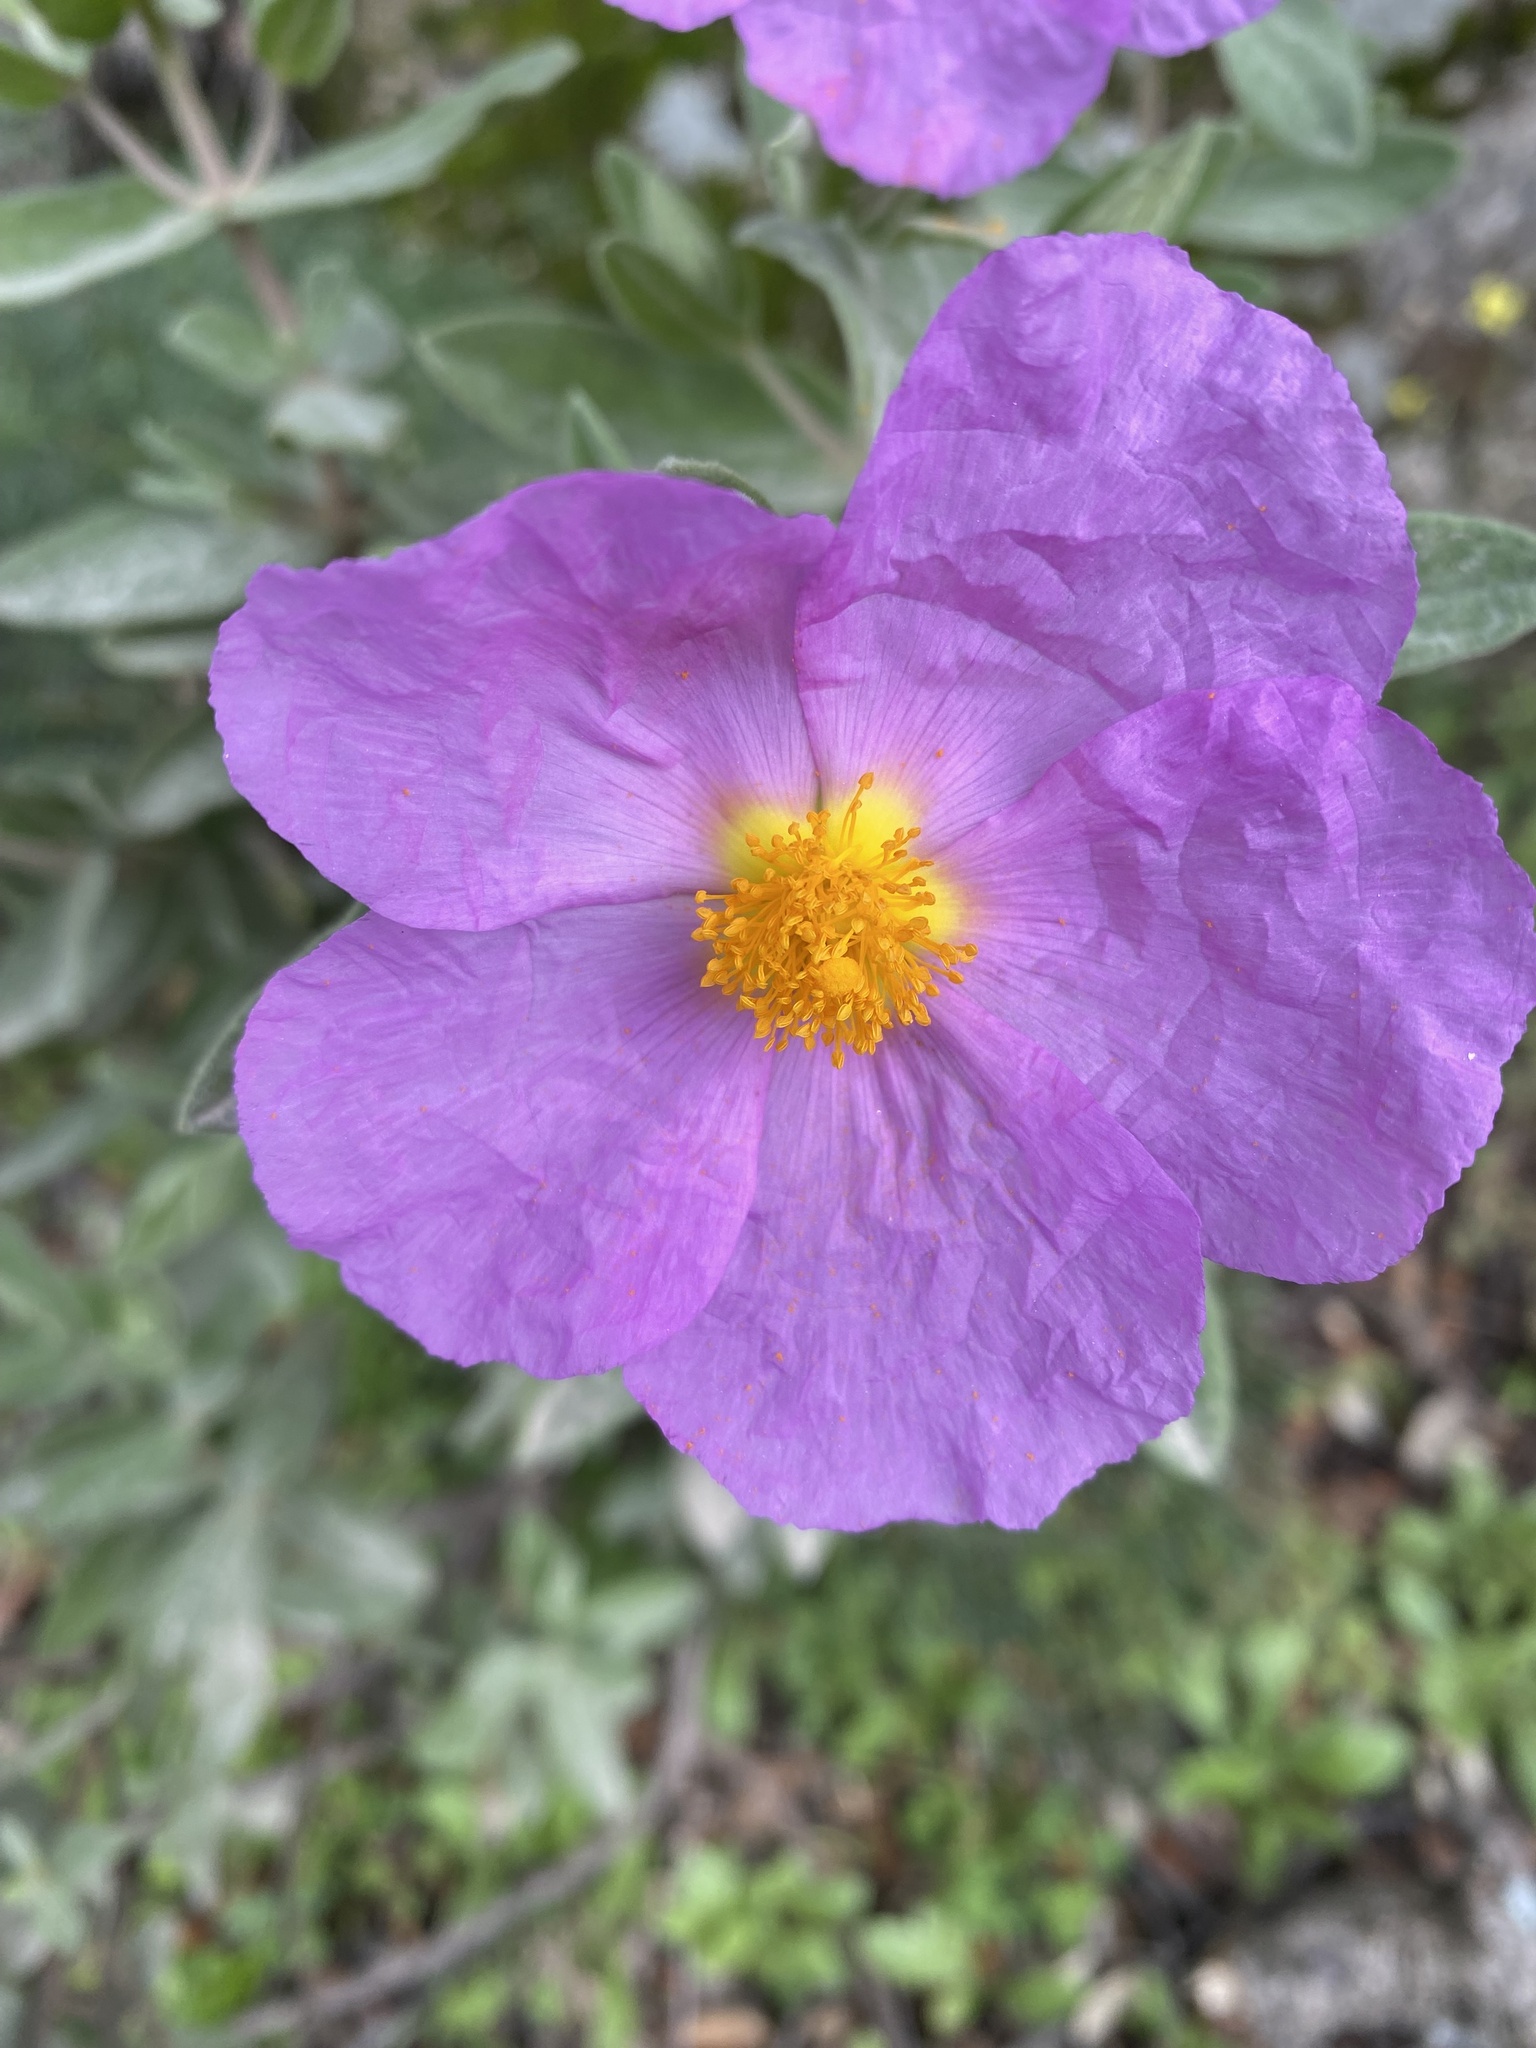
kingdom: Plantae
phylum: Tracheophyta
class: Magnoliopsida
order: Malvales
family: Cistaceae
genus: Cistus
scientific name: Cistus albidus
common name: White-leaf rock-rose
